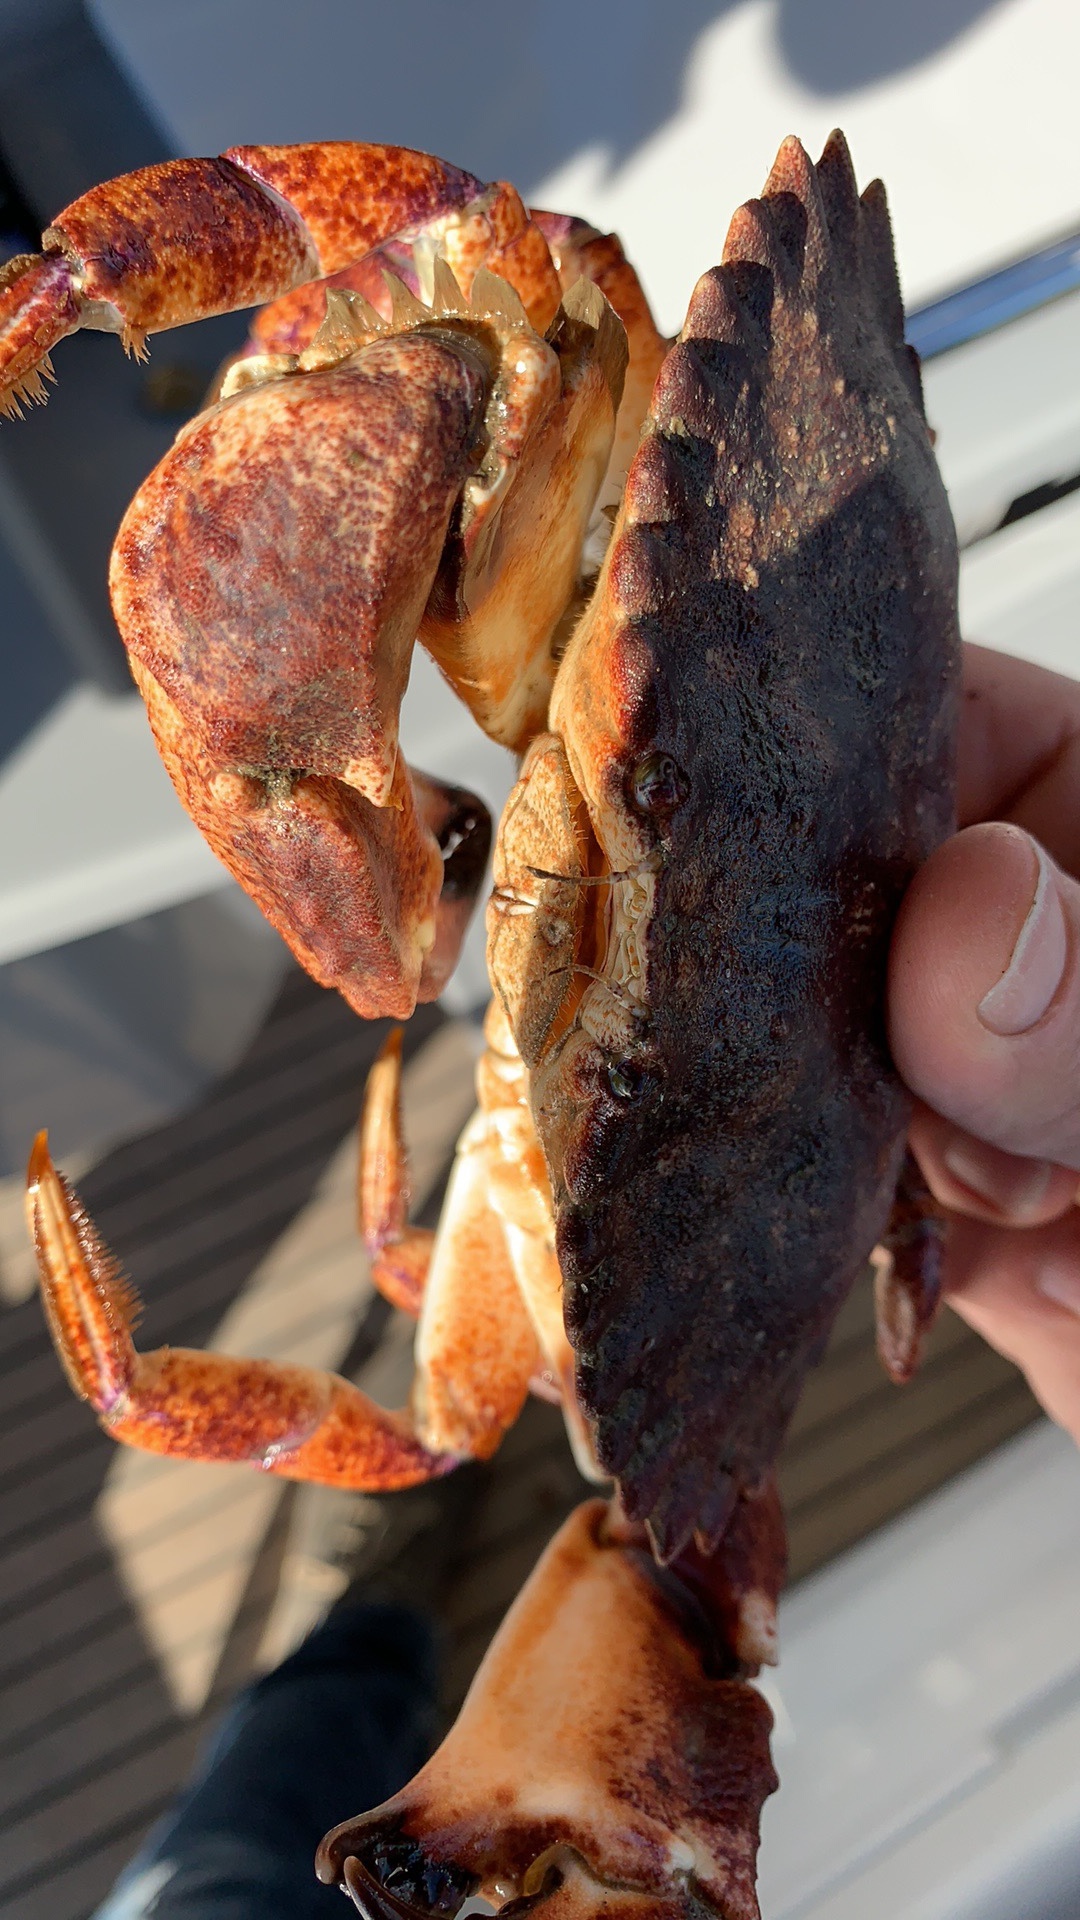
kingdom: Animalia
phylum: Arthropoda
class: Malacostraca
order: Decapoda
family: Cancridae
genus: Cancer
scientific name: Cancer productus
